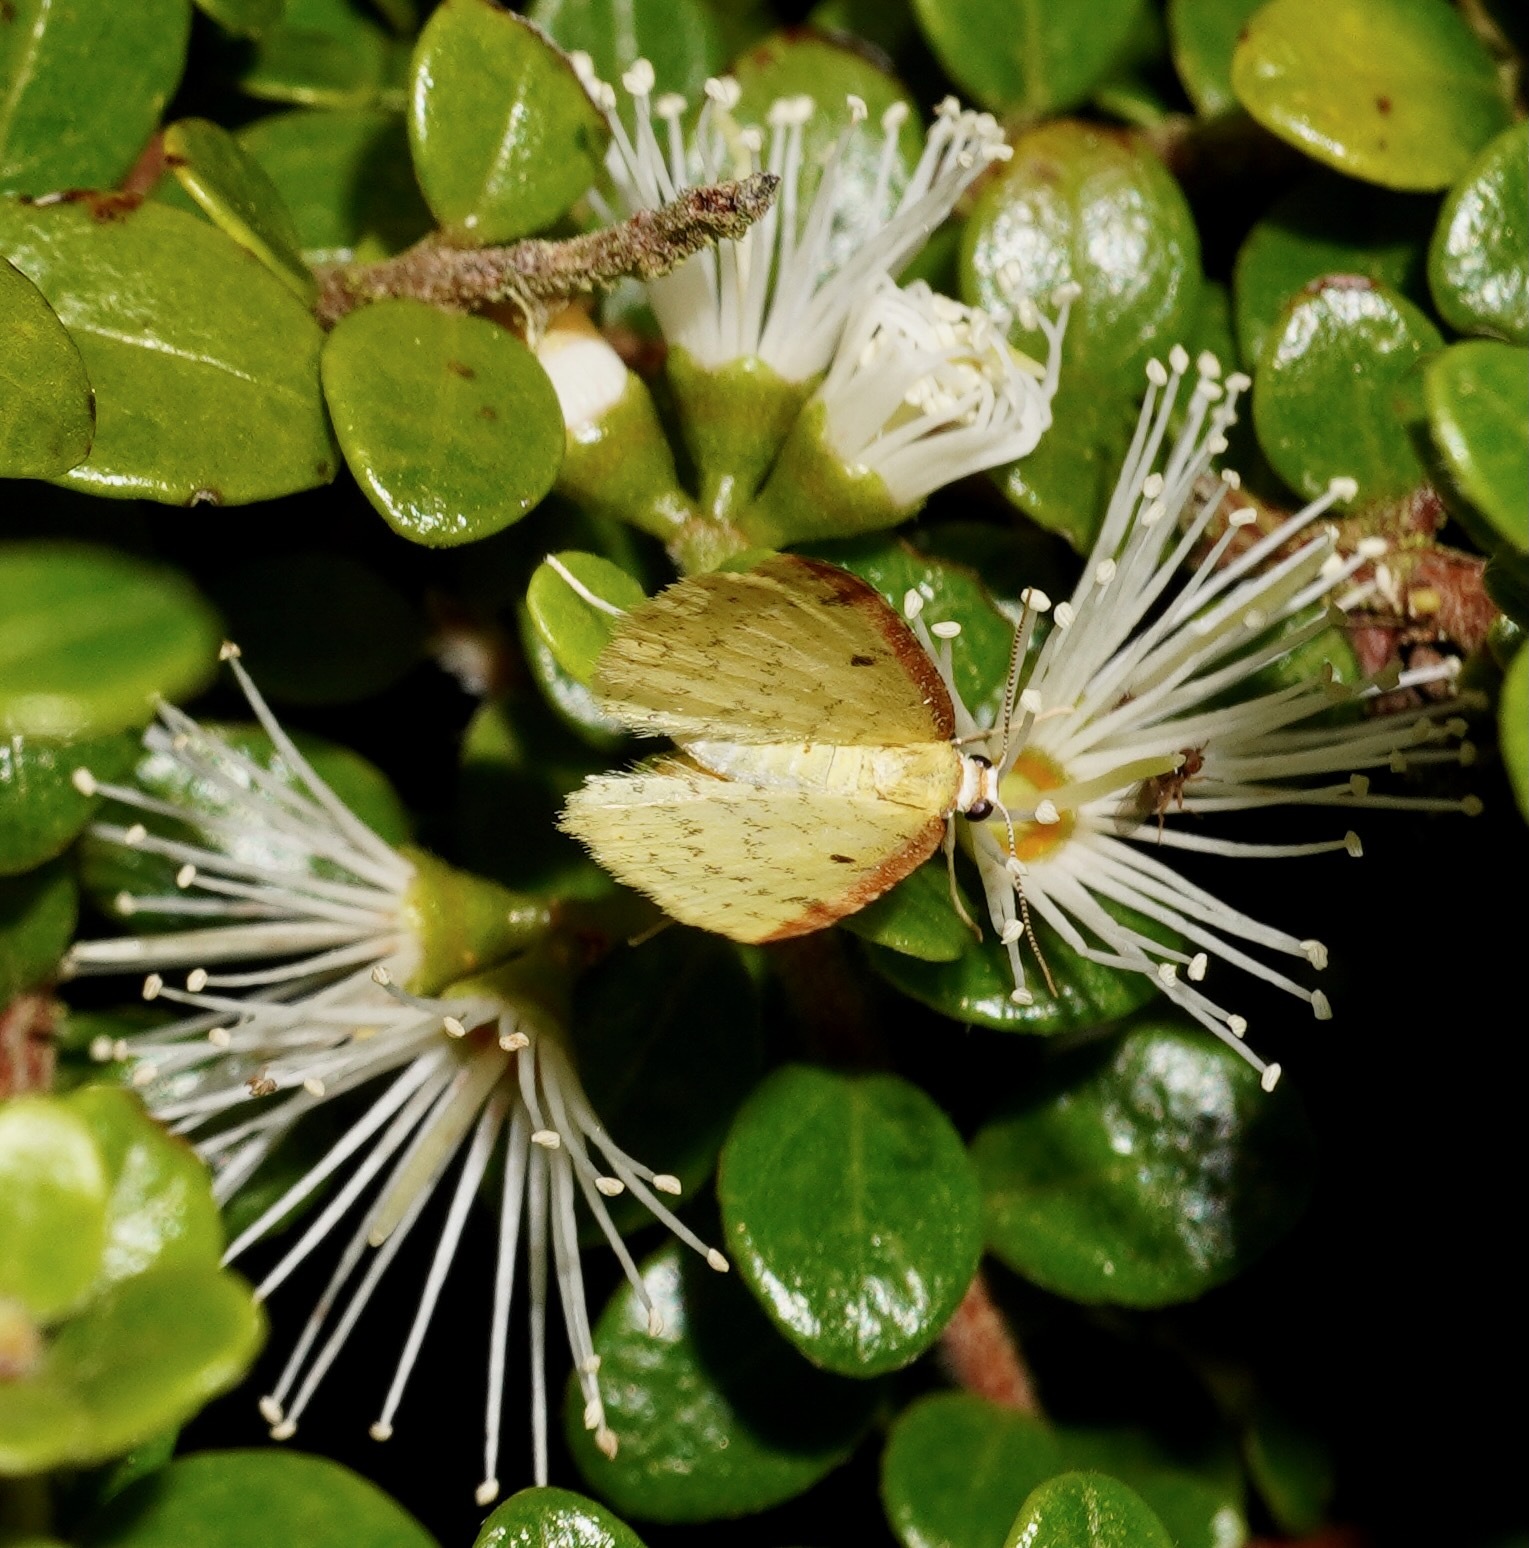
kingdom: Animalia
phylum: Arthropoda
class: Insecta
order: Lepidoptera
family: Geometridae
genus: Epiphryne
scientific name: Epiphryne undosata
